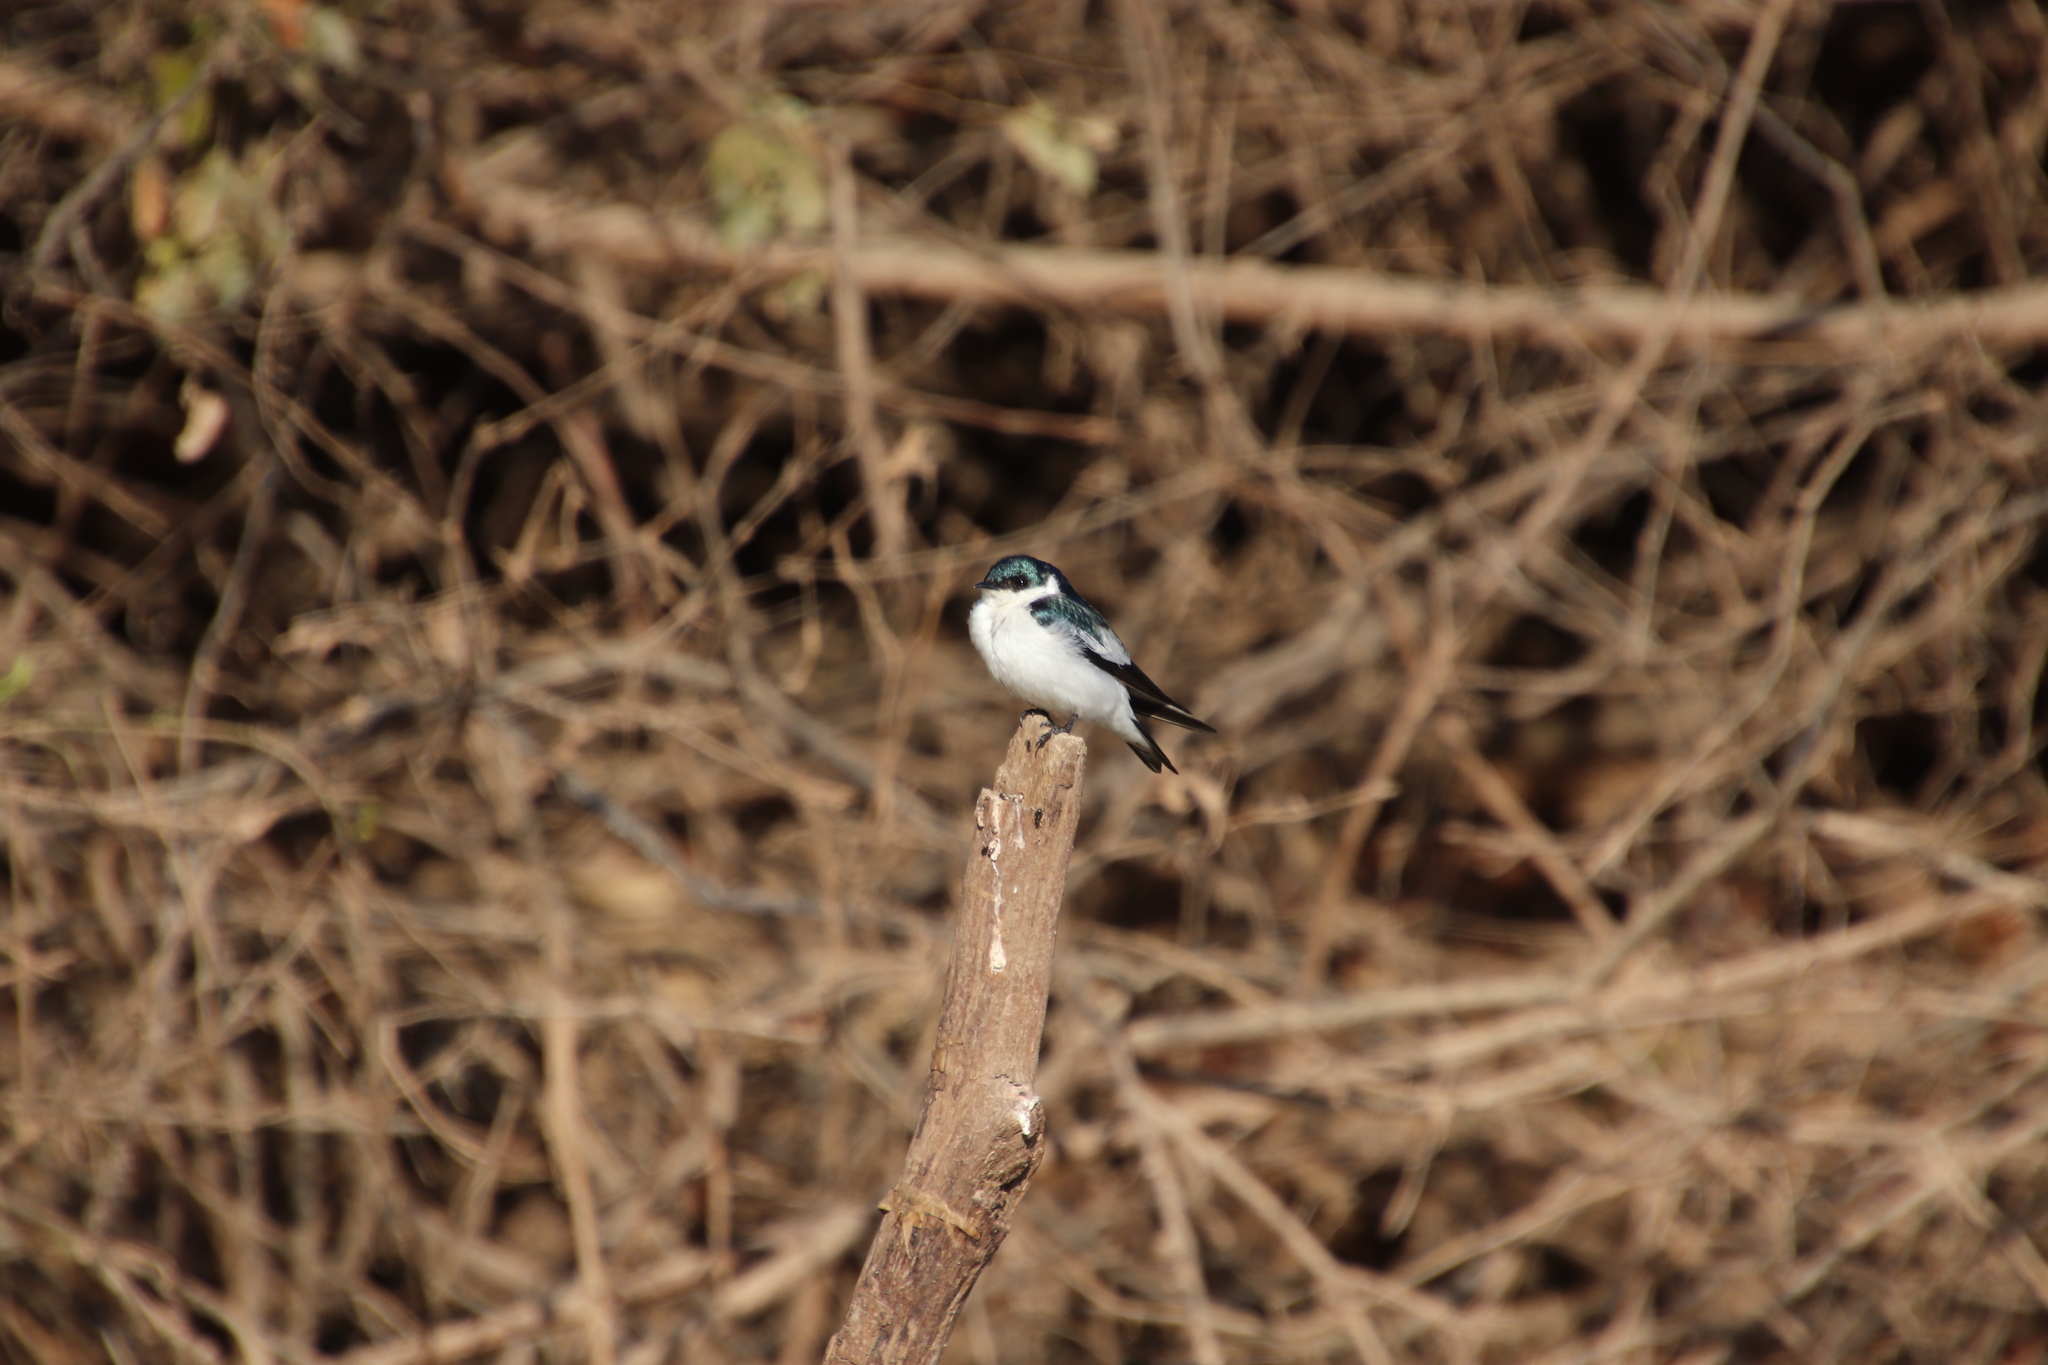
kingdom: Animalia
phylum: Chordata
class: Aves
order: Passeriformes
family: Hirundinidae
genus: Tachycineta
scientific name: Tachycineta albiventer
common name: White-winged swallow
